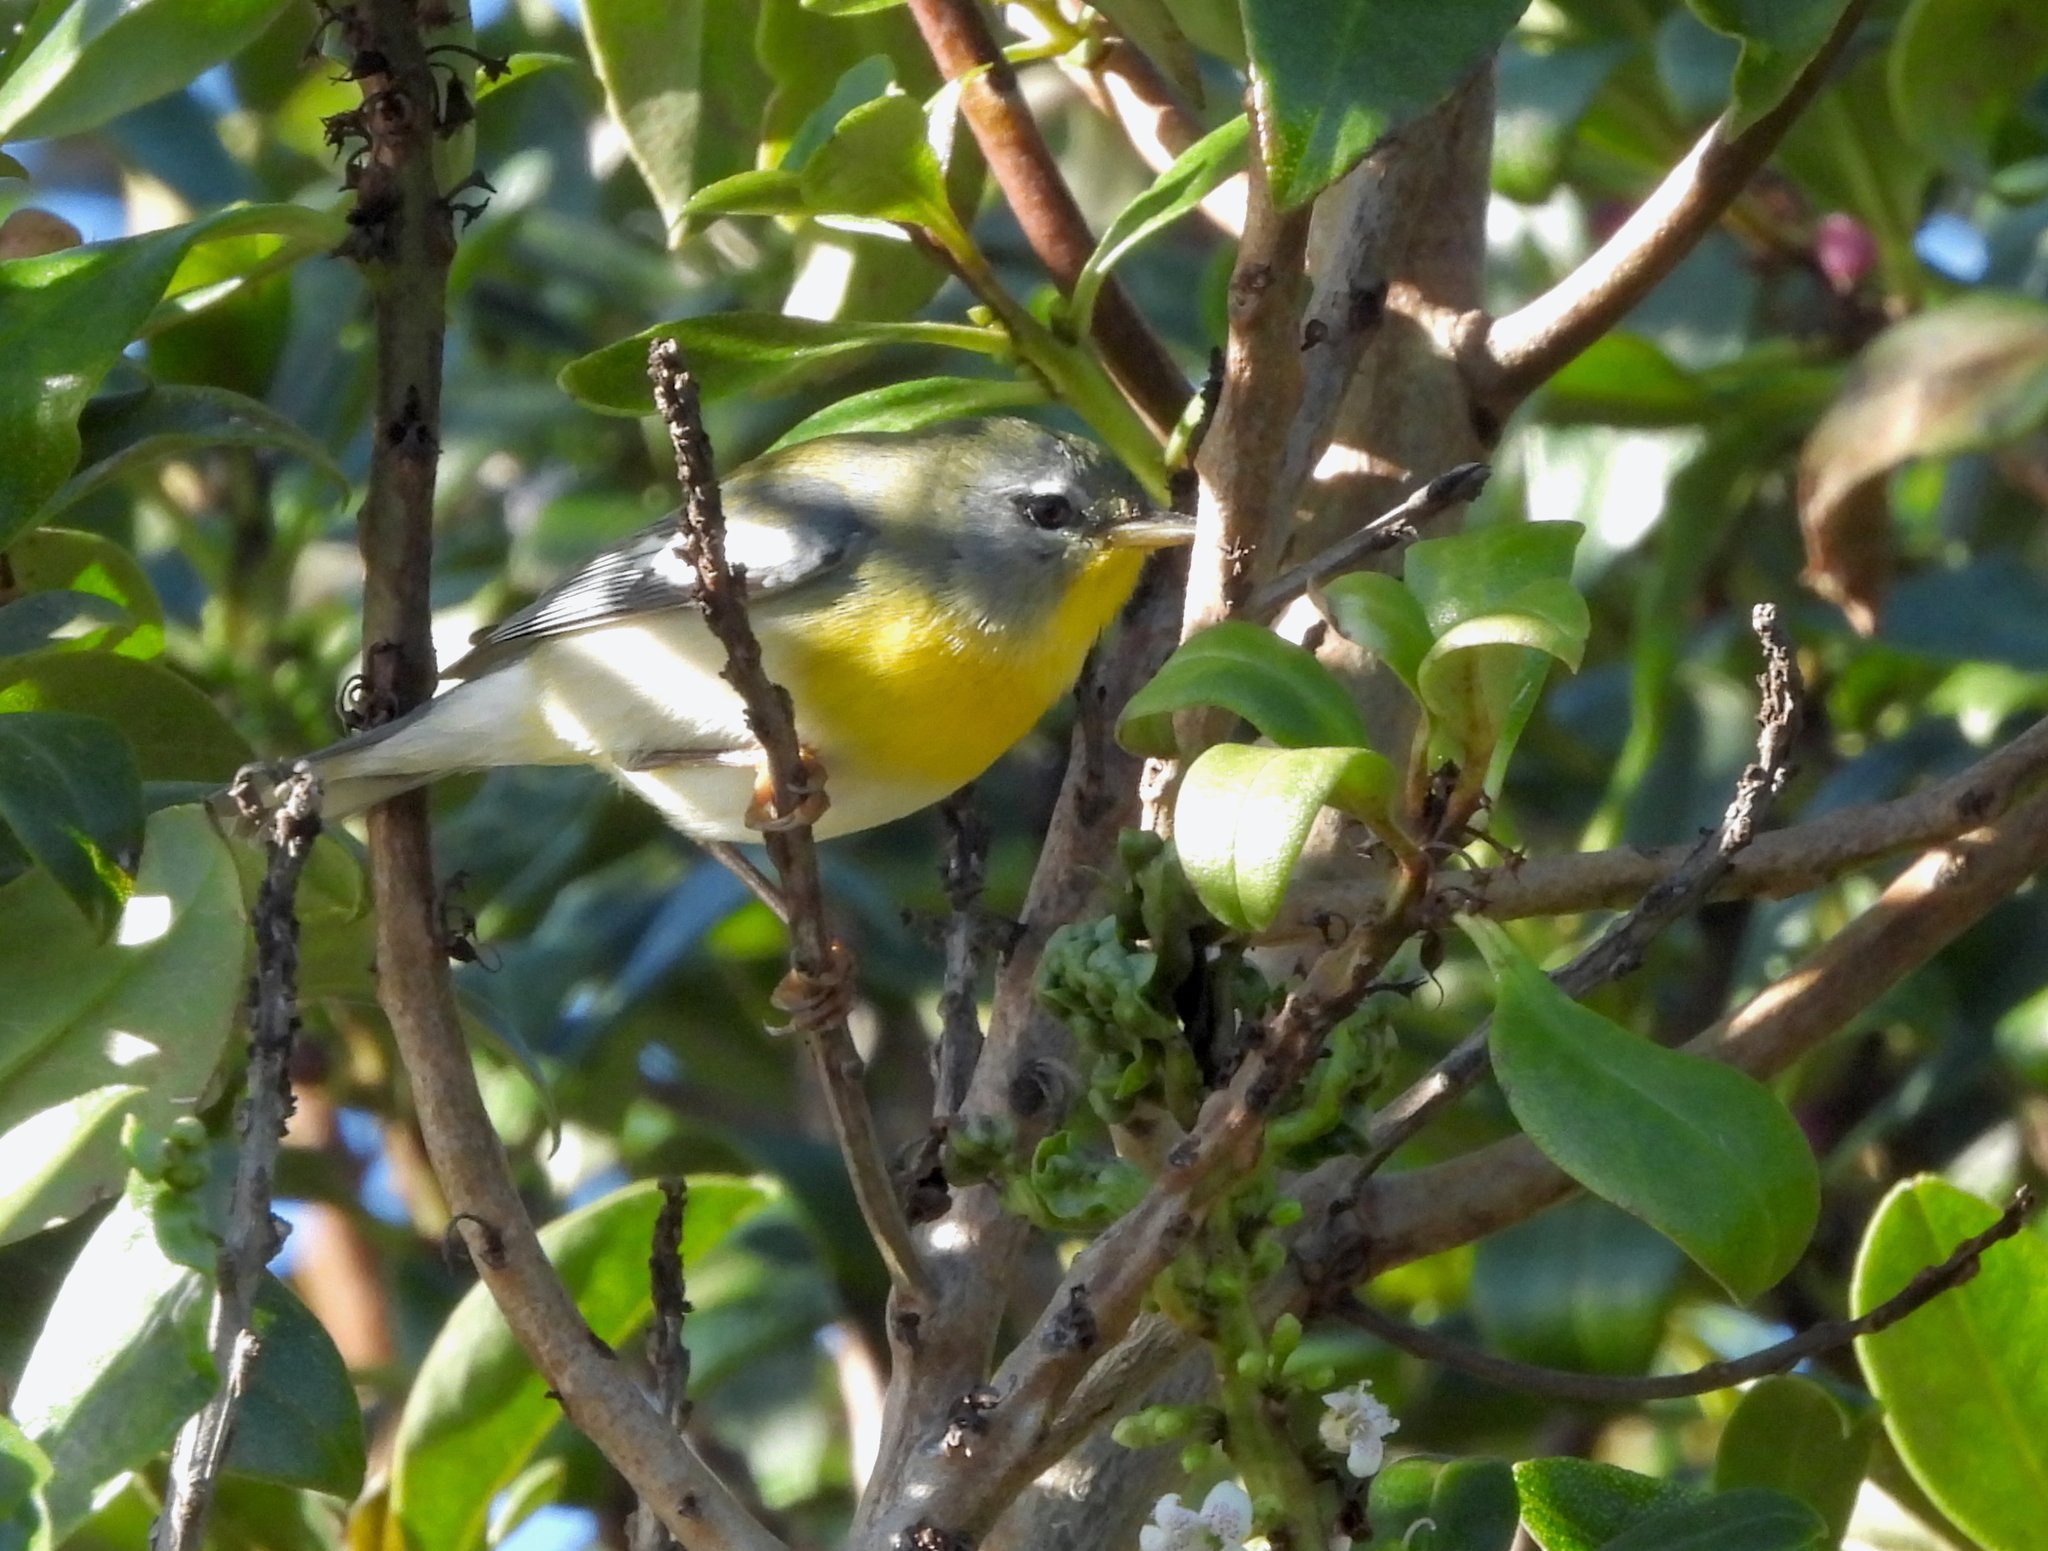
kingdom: Animalia
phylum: Chordata
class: Aves
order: Passeriformes
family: Parulidae
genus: Setophaga
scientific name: Setophaga americana
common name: Northern parula
